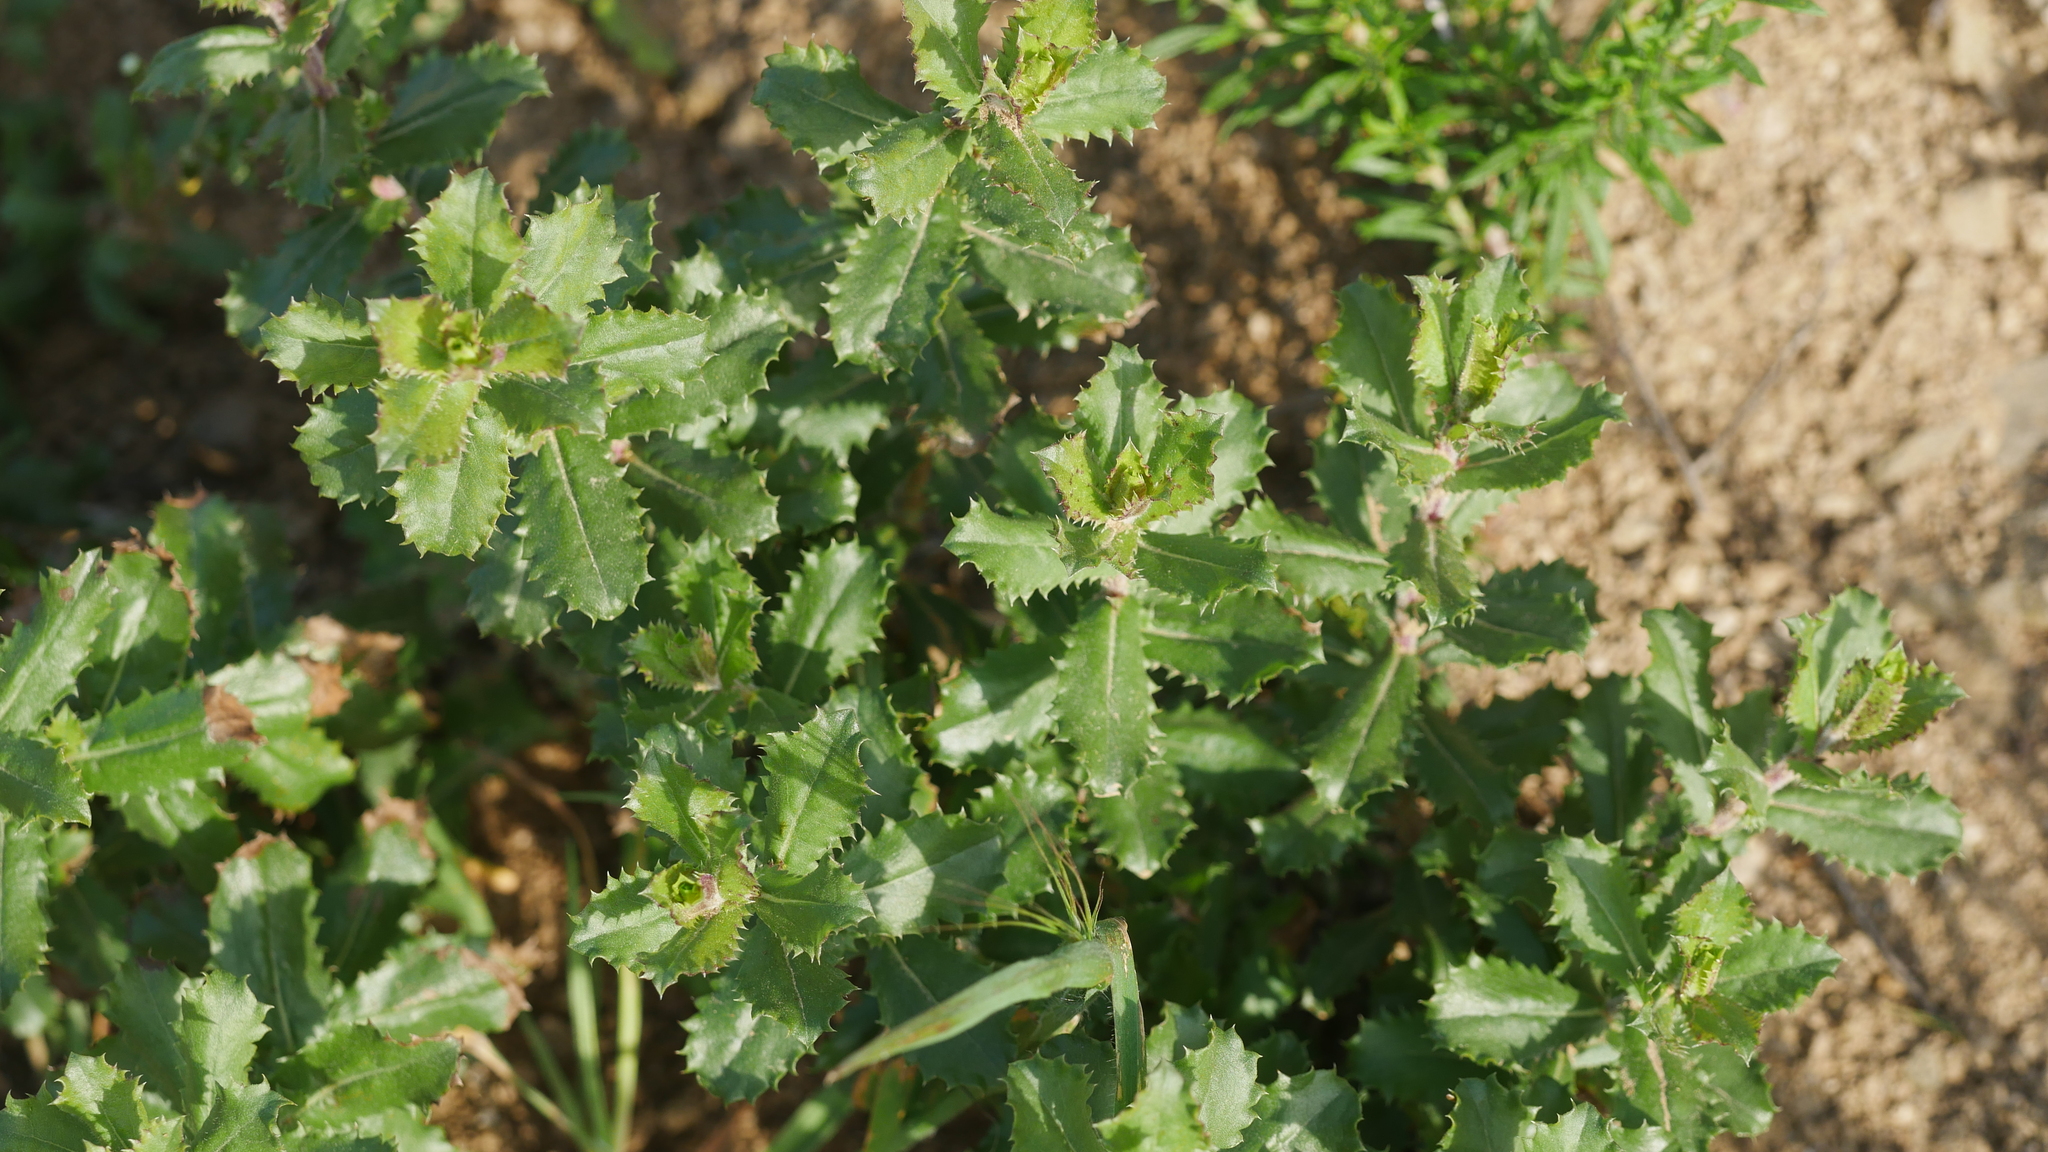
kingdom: Plantae
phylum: Tracheophyta
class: Magnoliopsida
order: Asterales
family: Asteraceae
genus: Hazardia
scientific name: Hazardia squarrosa
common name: Saw-tooth goldenbush
